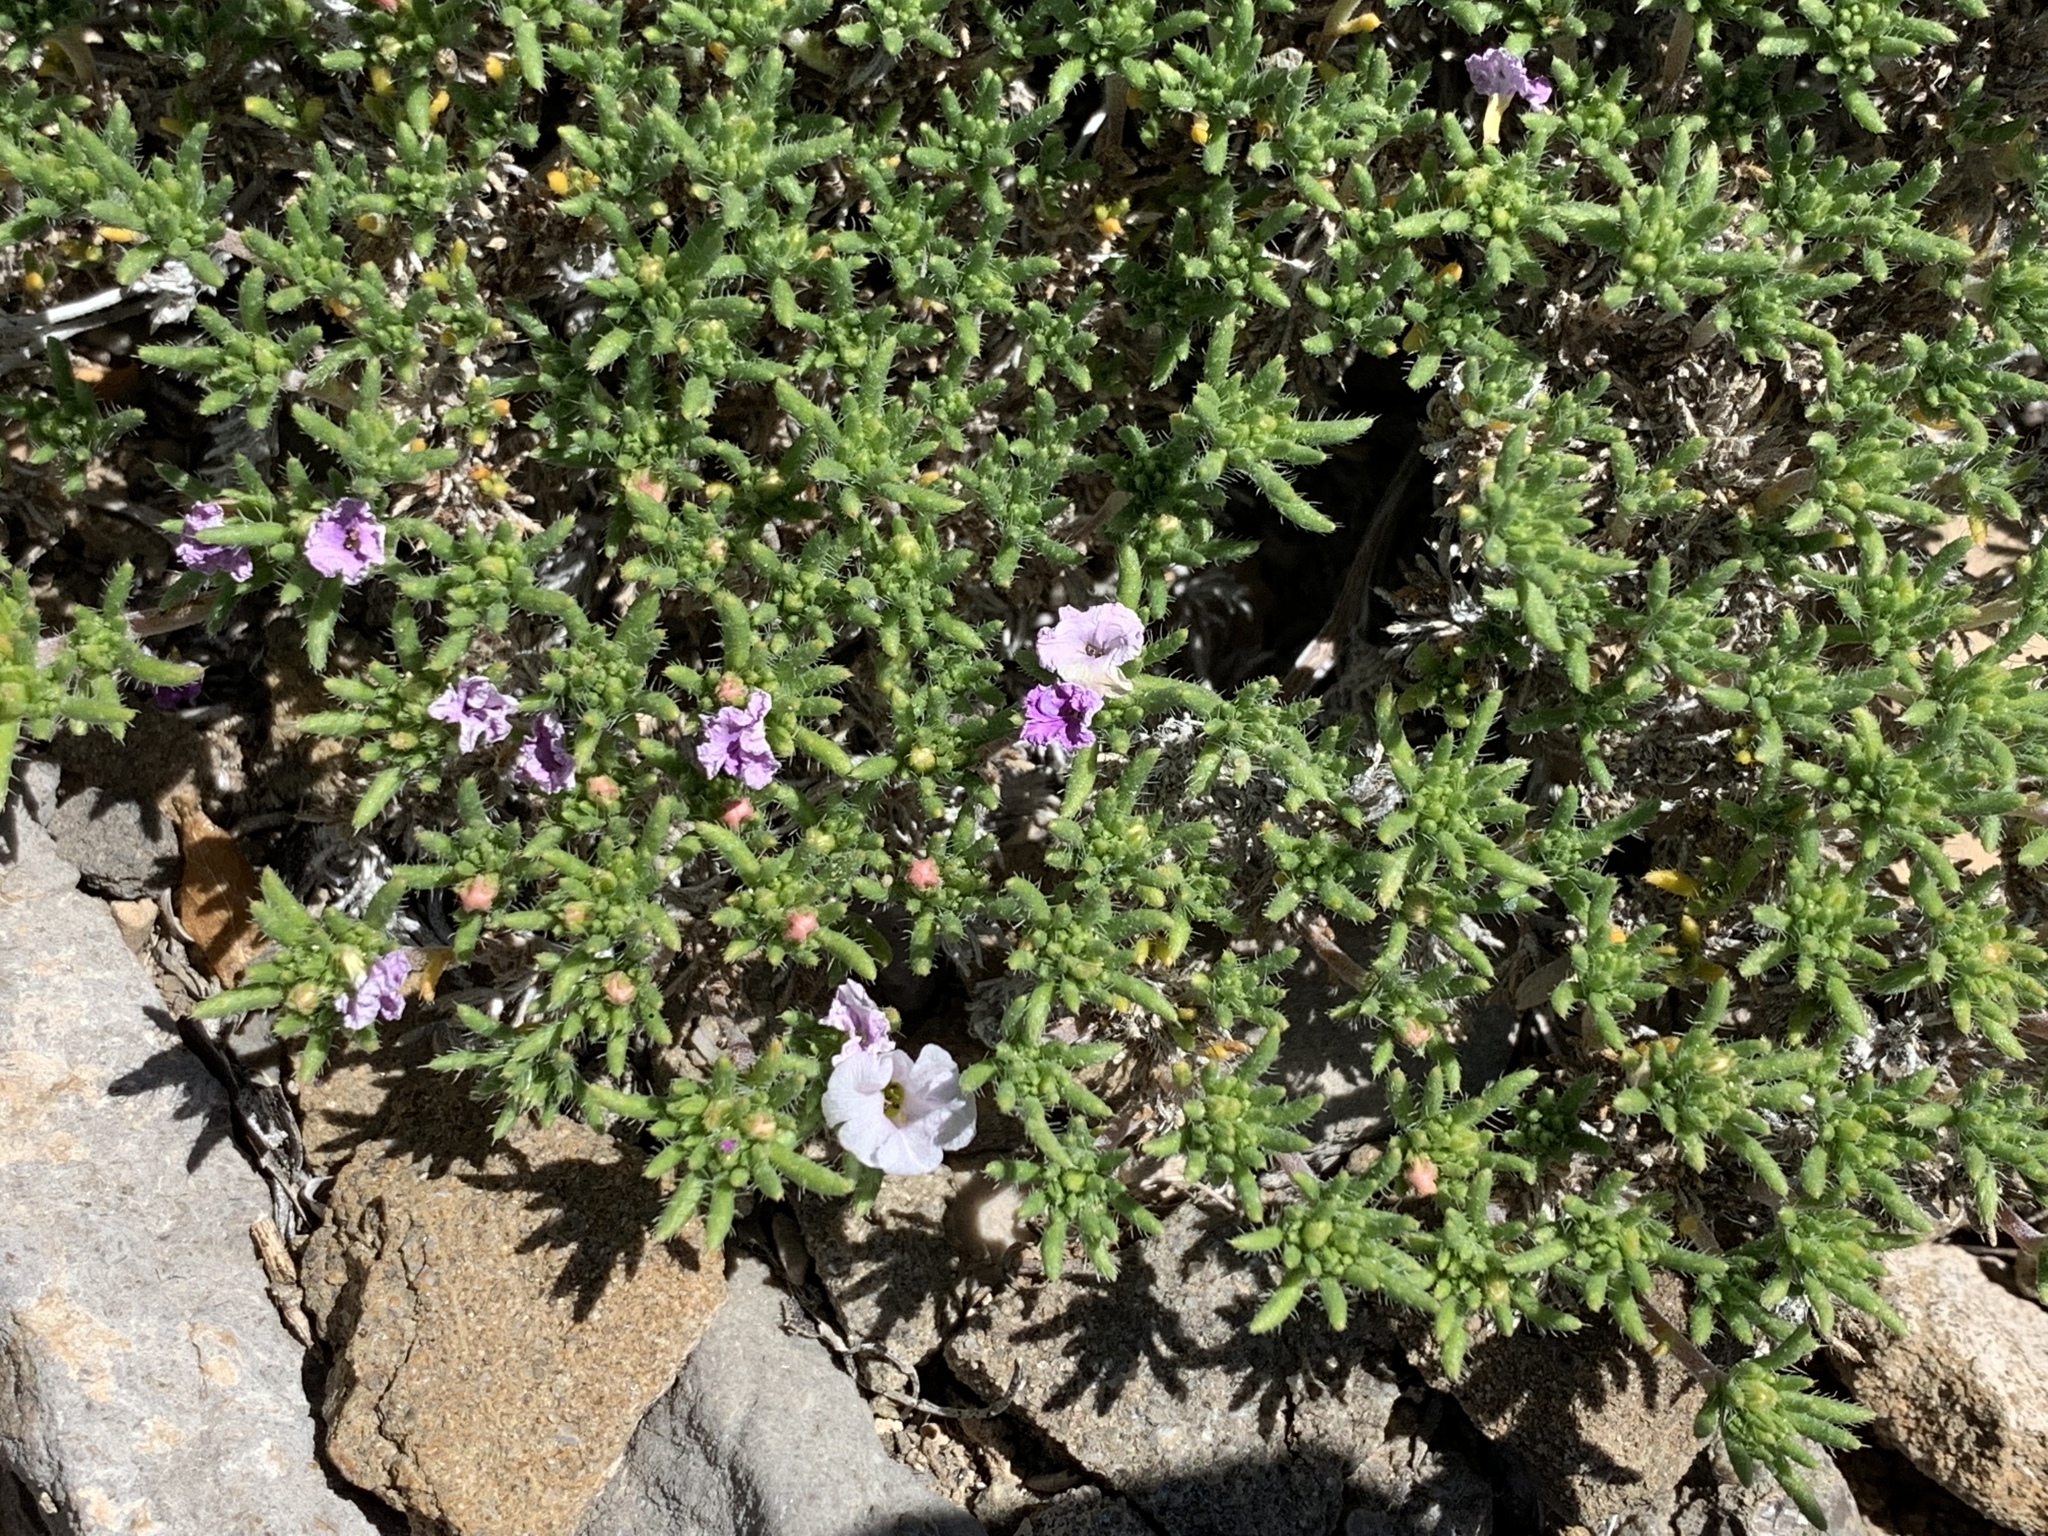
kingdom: Plantae
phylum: Tracheophyta
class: Magnoliopsida
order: Boraginales
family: Ehretiaceae
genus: Tiquilia
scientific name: Tiquilia hispidissima
